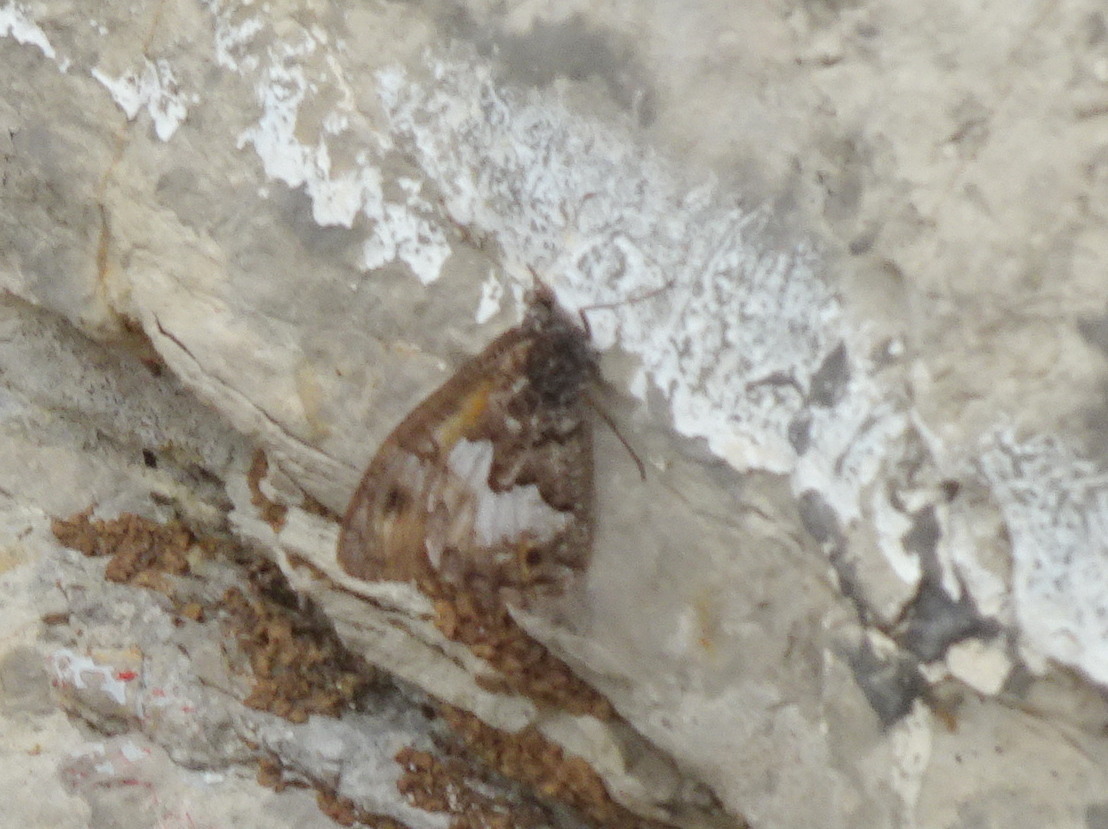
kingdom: Animalia
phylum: Arthropoda
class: Insecta
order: Lepidoptera
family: Nymphalidae
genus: Hipparchia
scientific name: Hipparchia semele
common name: Grayling
